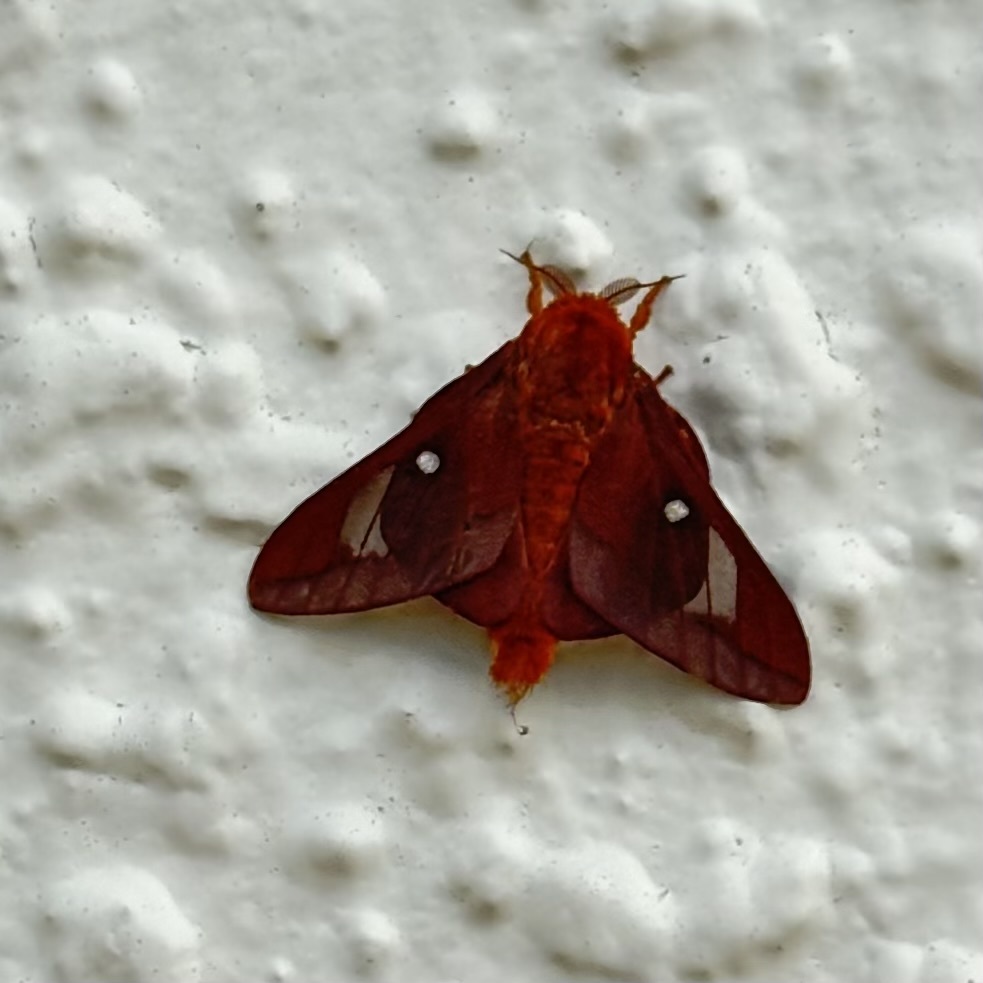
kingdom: Animalia
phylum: Arthropoda
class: Insecta
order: Lepidoptera
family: Saturniidae
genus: Anisota
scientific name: Anisota virginiensis
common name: Pink striped oakworm moth
